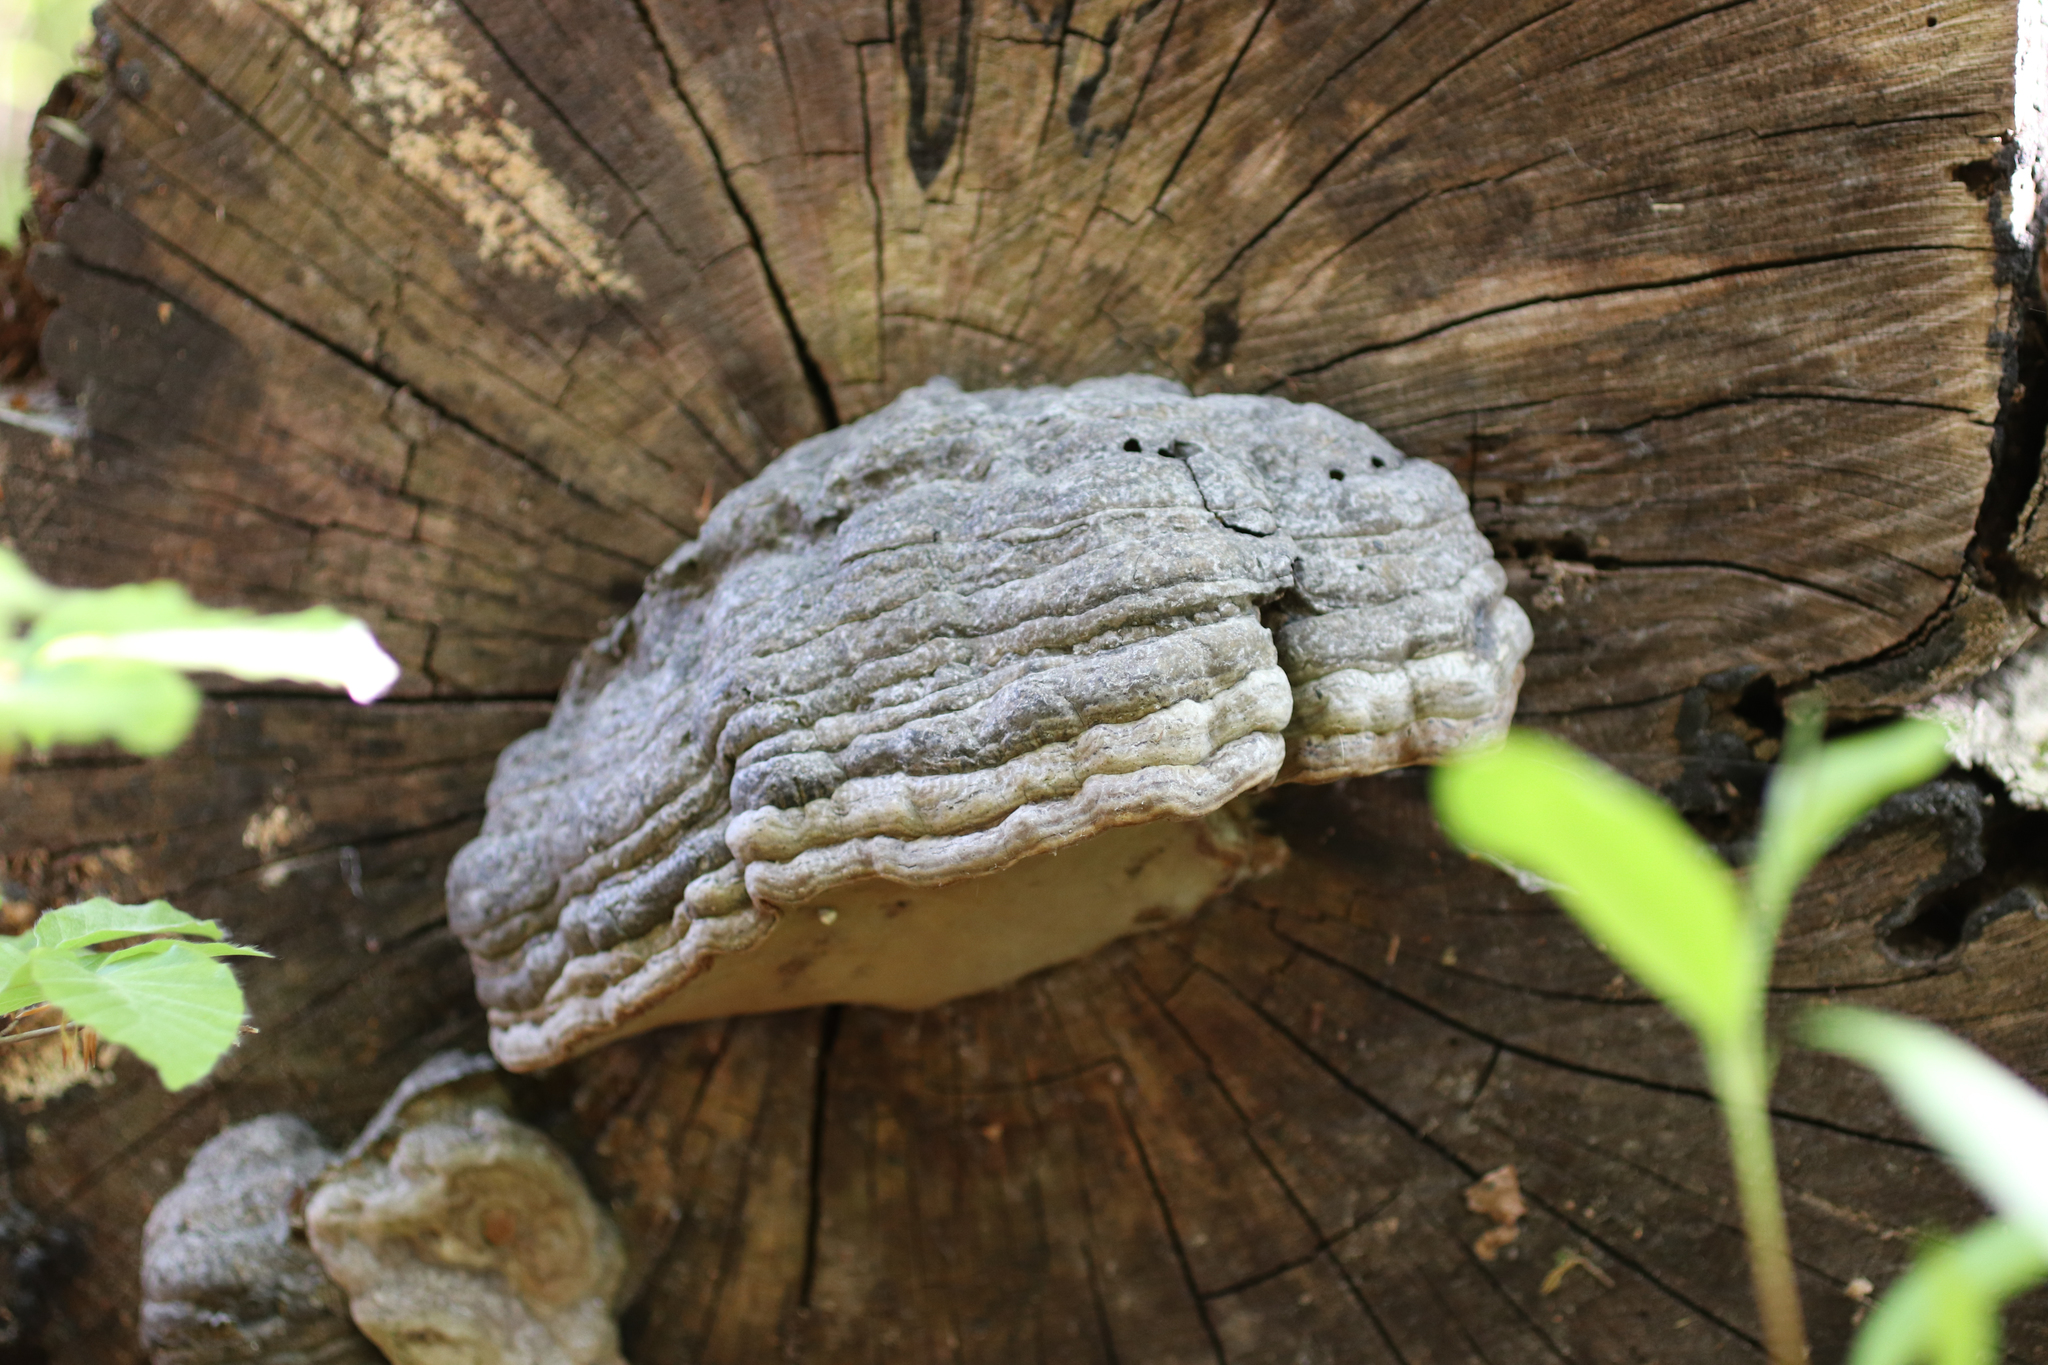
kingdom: Fungi
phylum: Basidiomycota
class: Agaricomycetes
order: Polyporales
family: Polyporaceae
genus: Fomes
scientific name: Fomes fomentarius
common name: Hoof fungus
